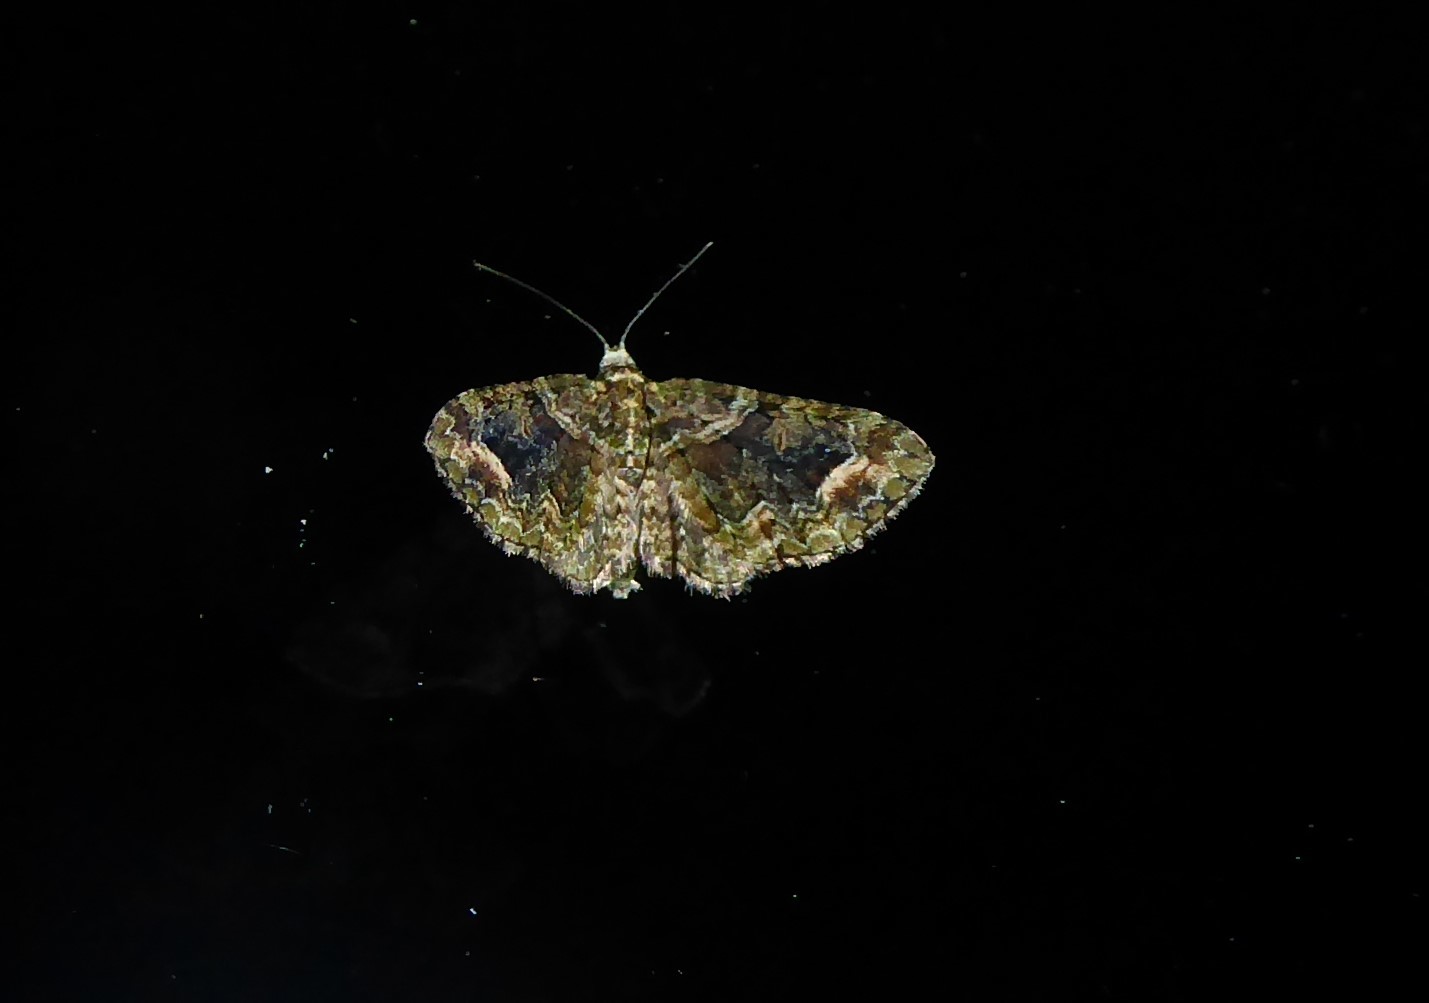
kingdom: Animalia
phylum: Arthropoda
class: Insecta
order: Lepidoptera
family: Geometridae
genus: Idaea
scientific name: Idaea mutanda
